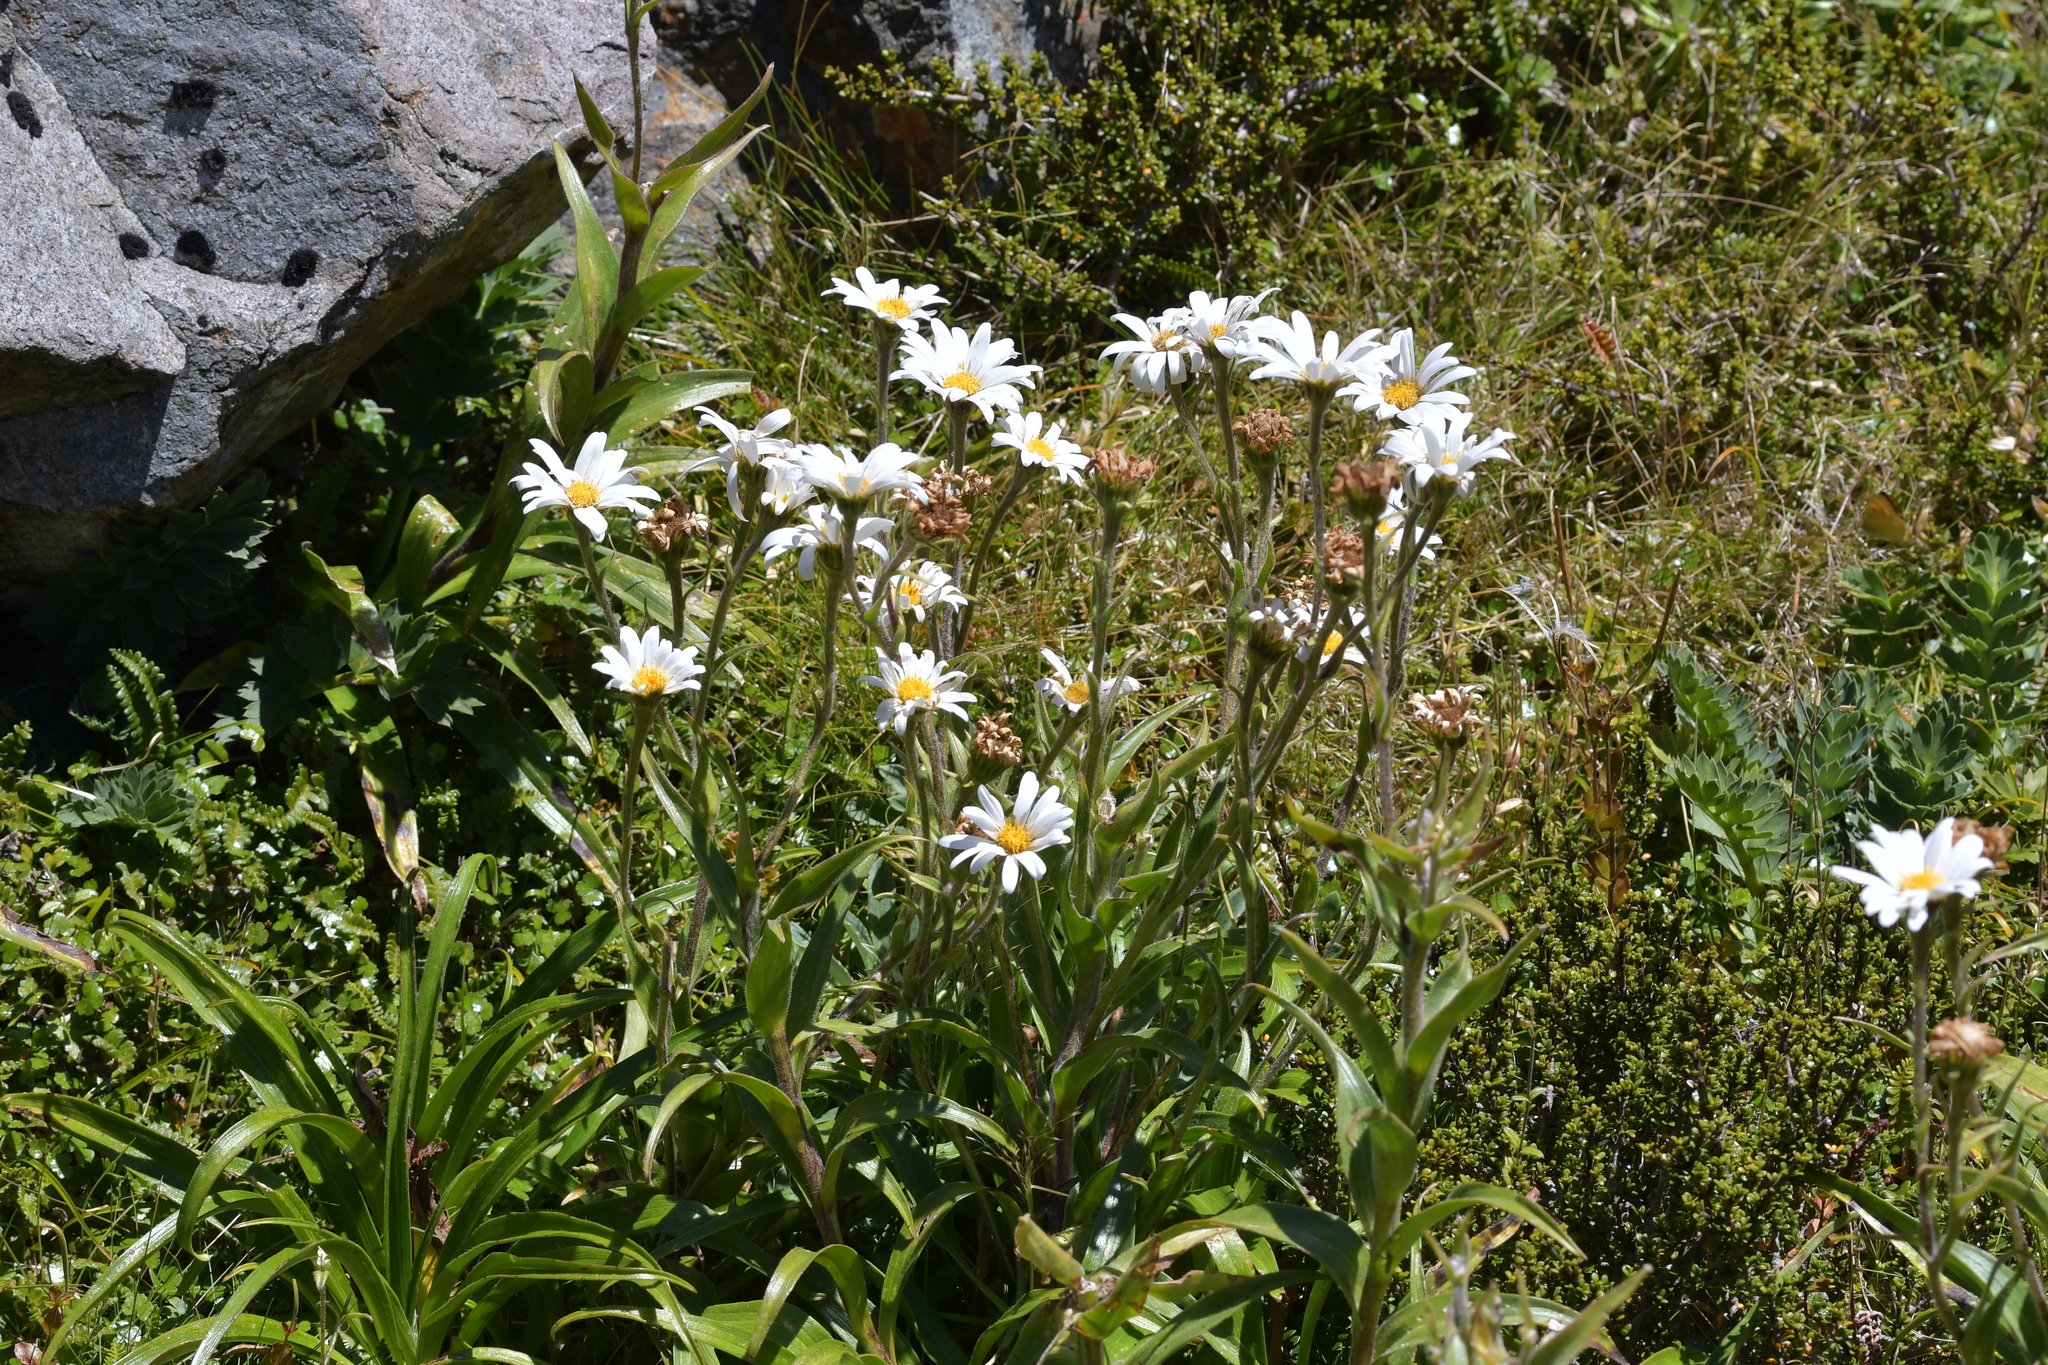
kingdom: Plantae
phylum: Tracheophyta
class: Magnoliopsida
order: Asterales
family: Asteraceae
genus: Dolichoglottis
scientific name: Dolichoglottis scorzoneroides
